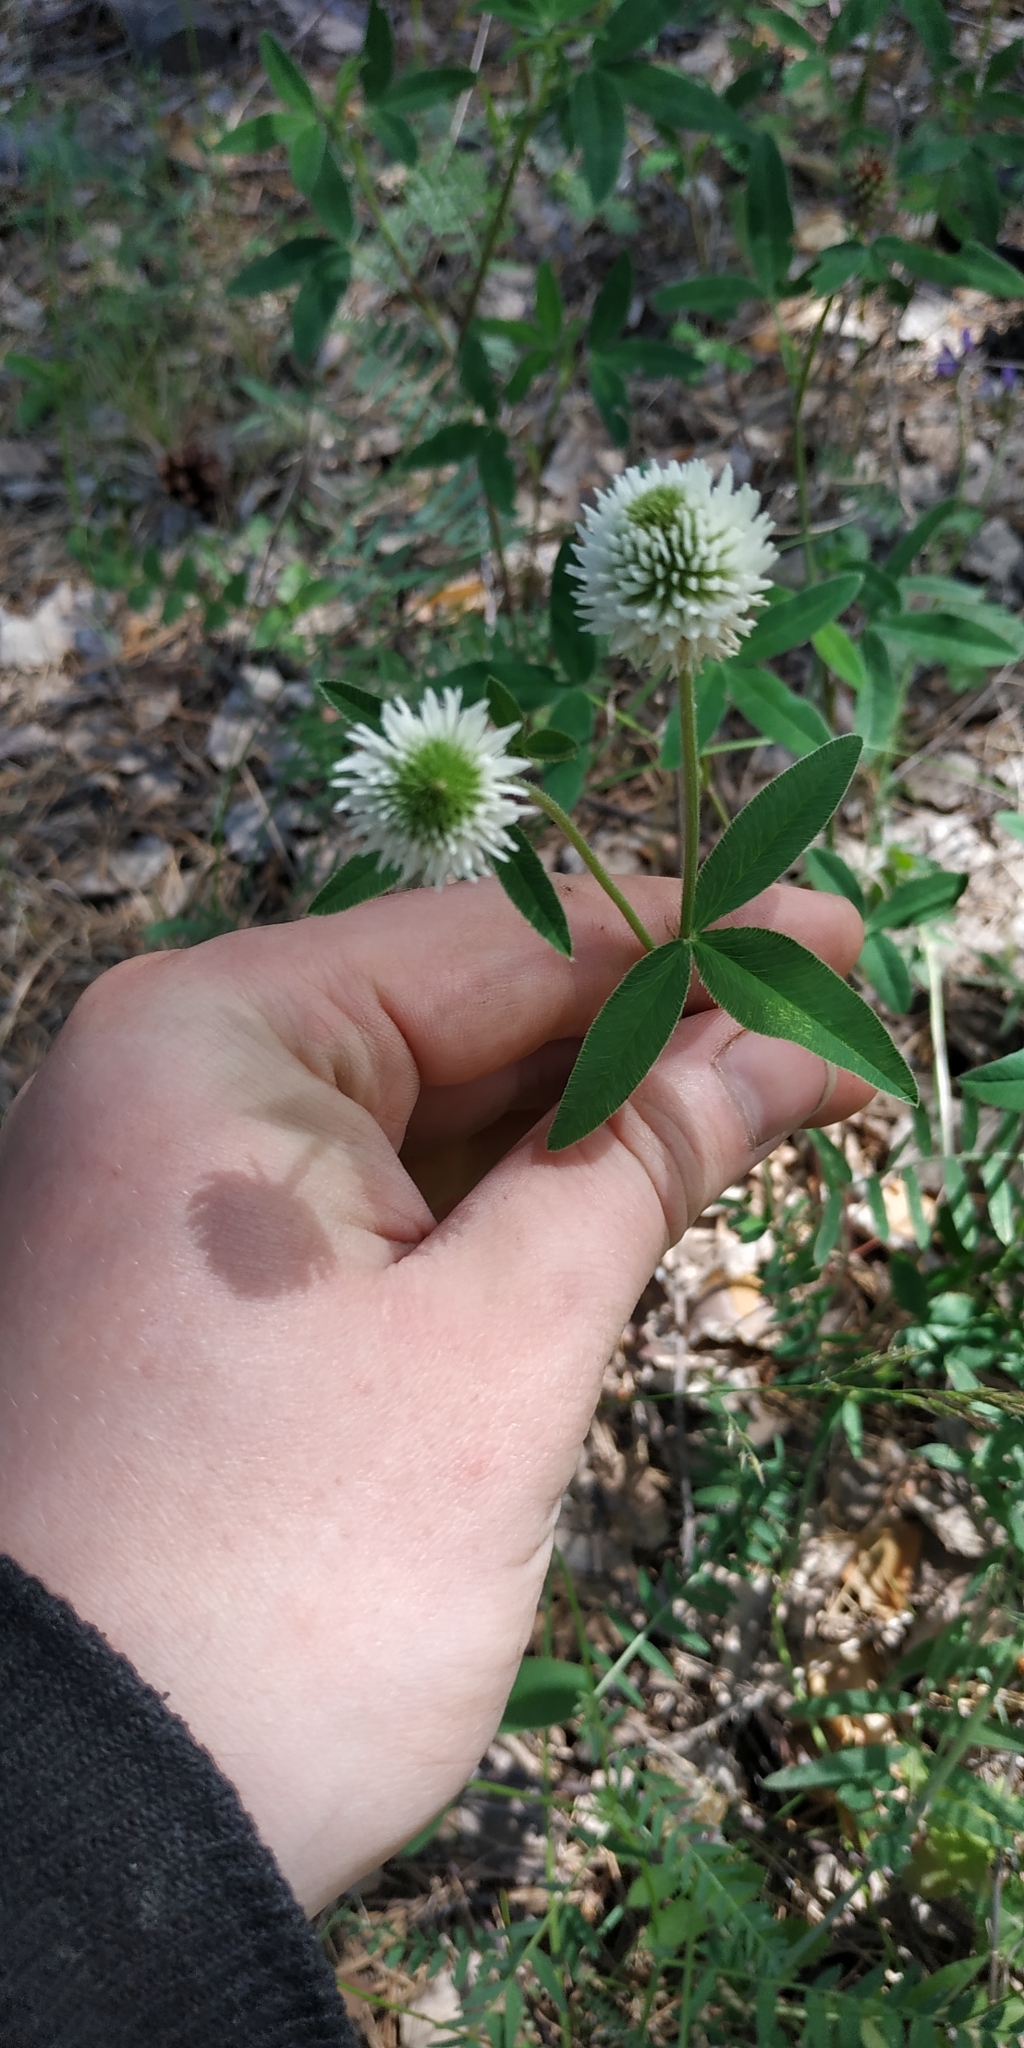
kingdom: Plantae
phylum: Tracheophyta
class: Magnoliopsida
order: Fabales
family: Fabaceae
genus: Trifolium
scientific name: Trifolium montanum
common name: Mountain clover
